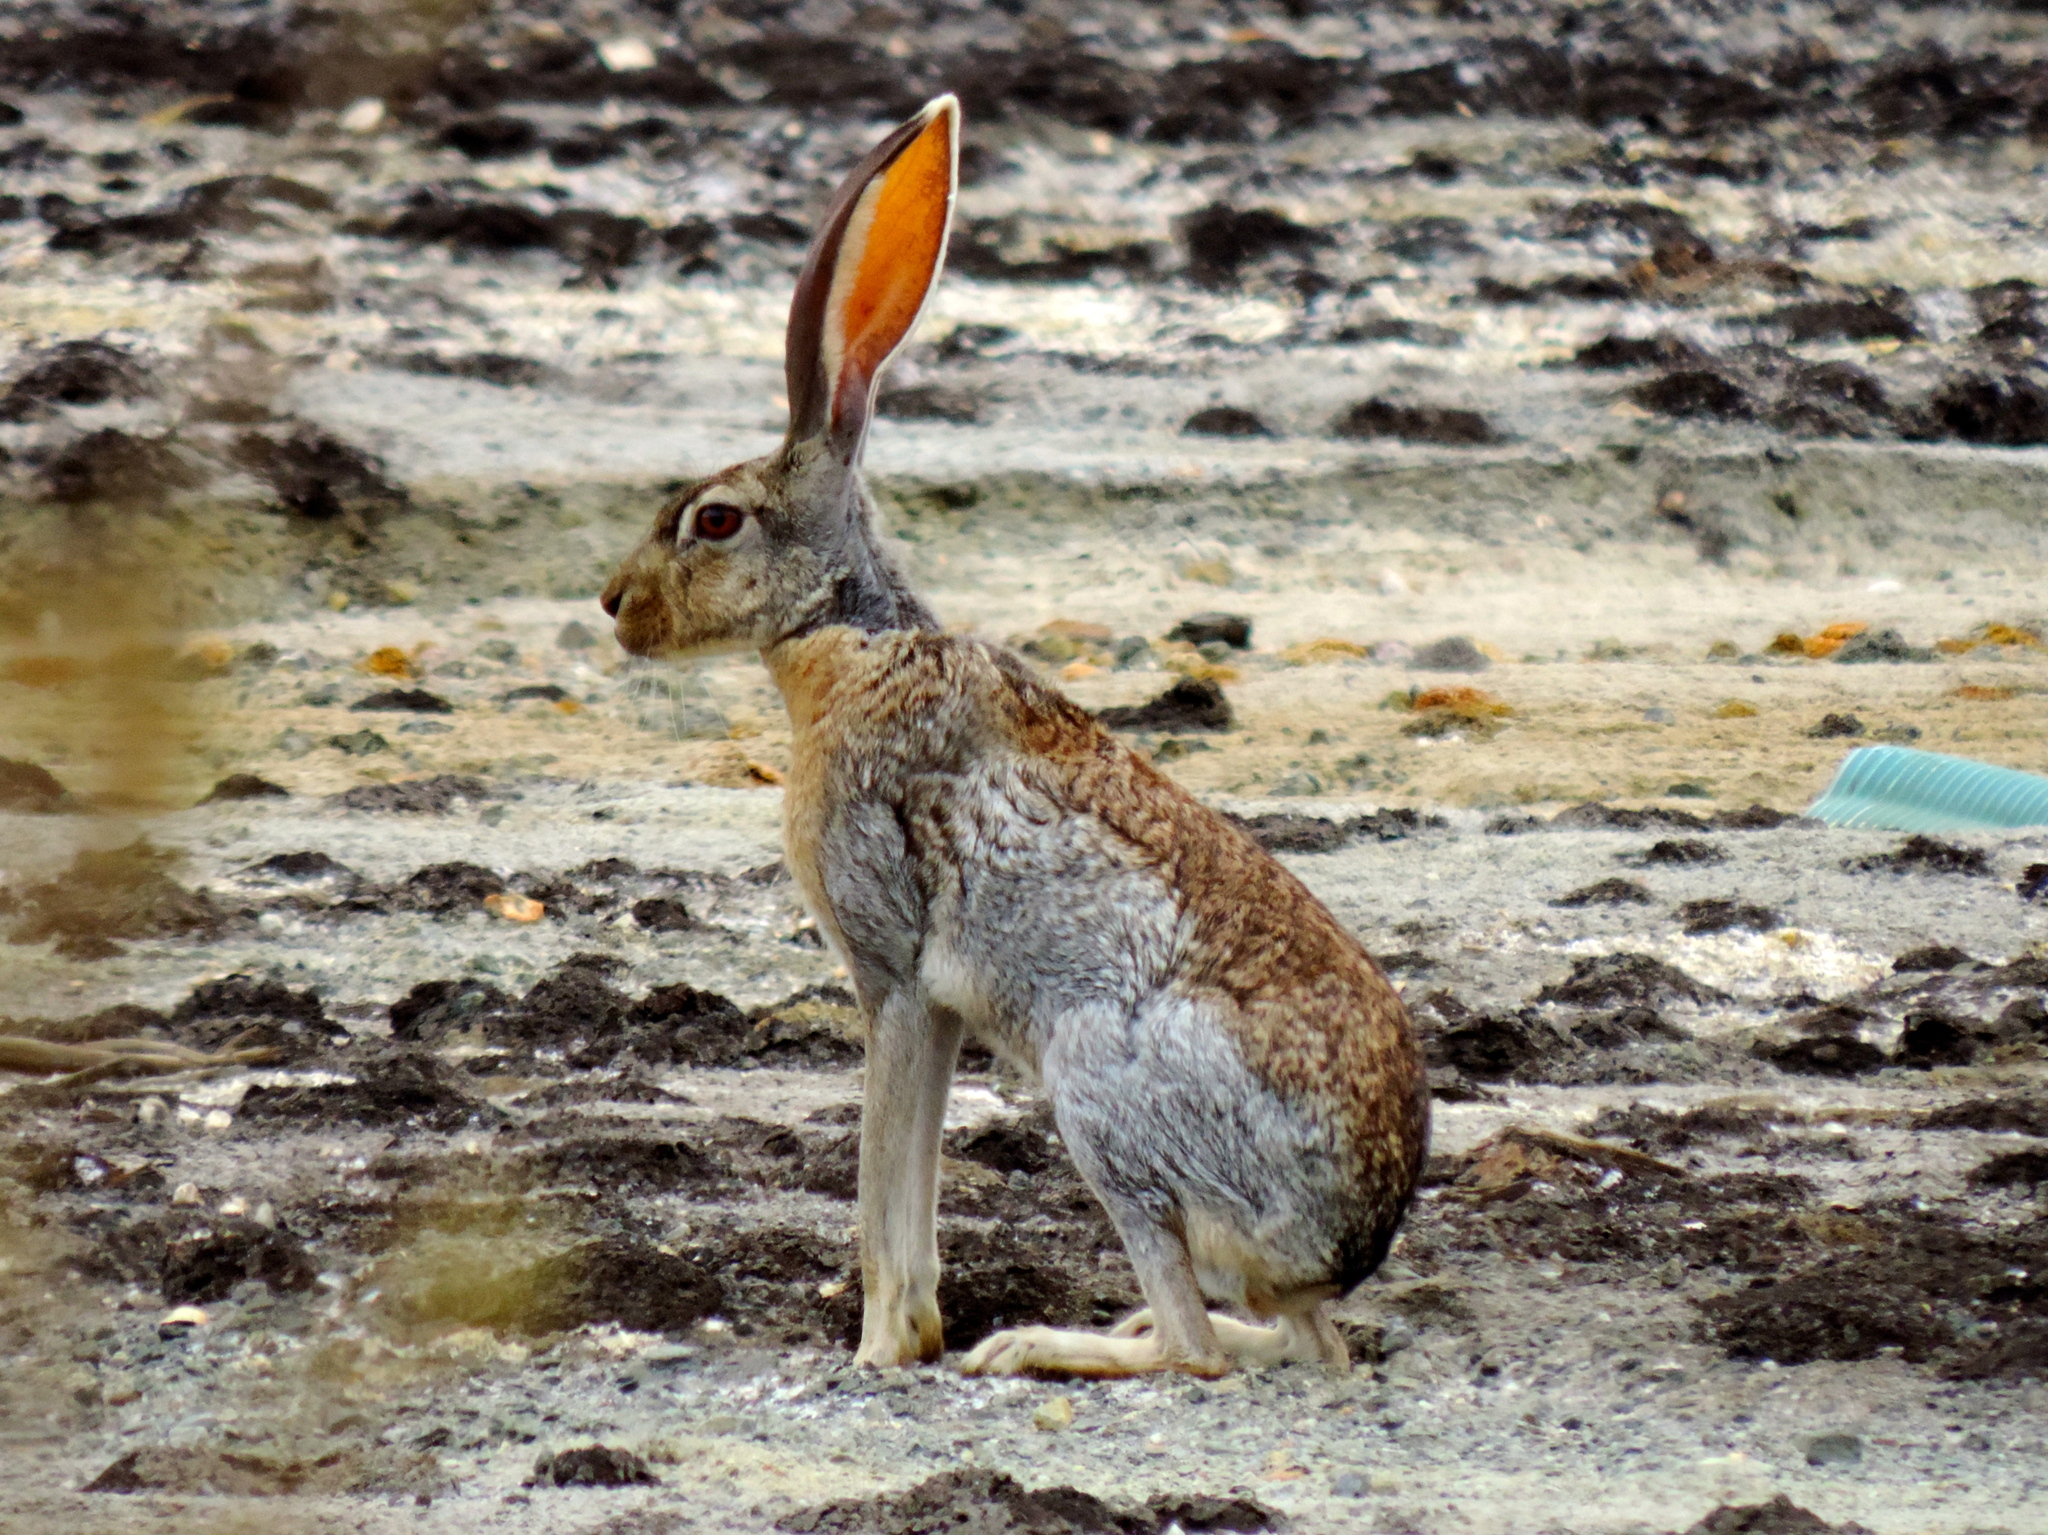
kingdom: Animalia
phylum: Chordata
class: Mammalia
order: Lagomorpha
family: Leporidae
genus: Lepus
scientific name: Lepus alleni
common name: Antelope jackrabbit
